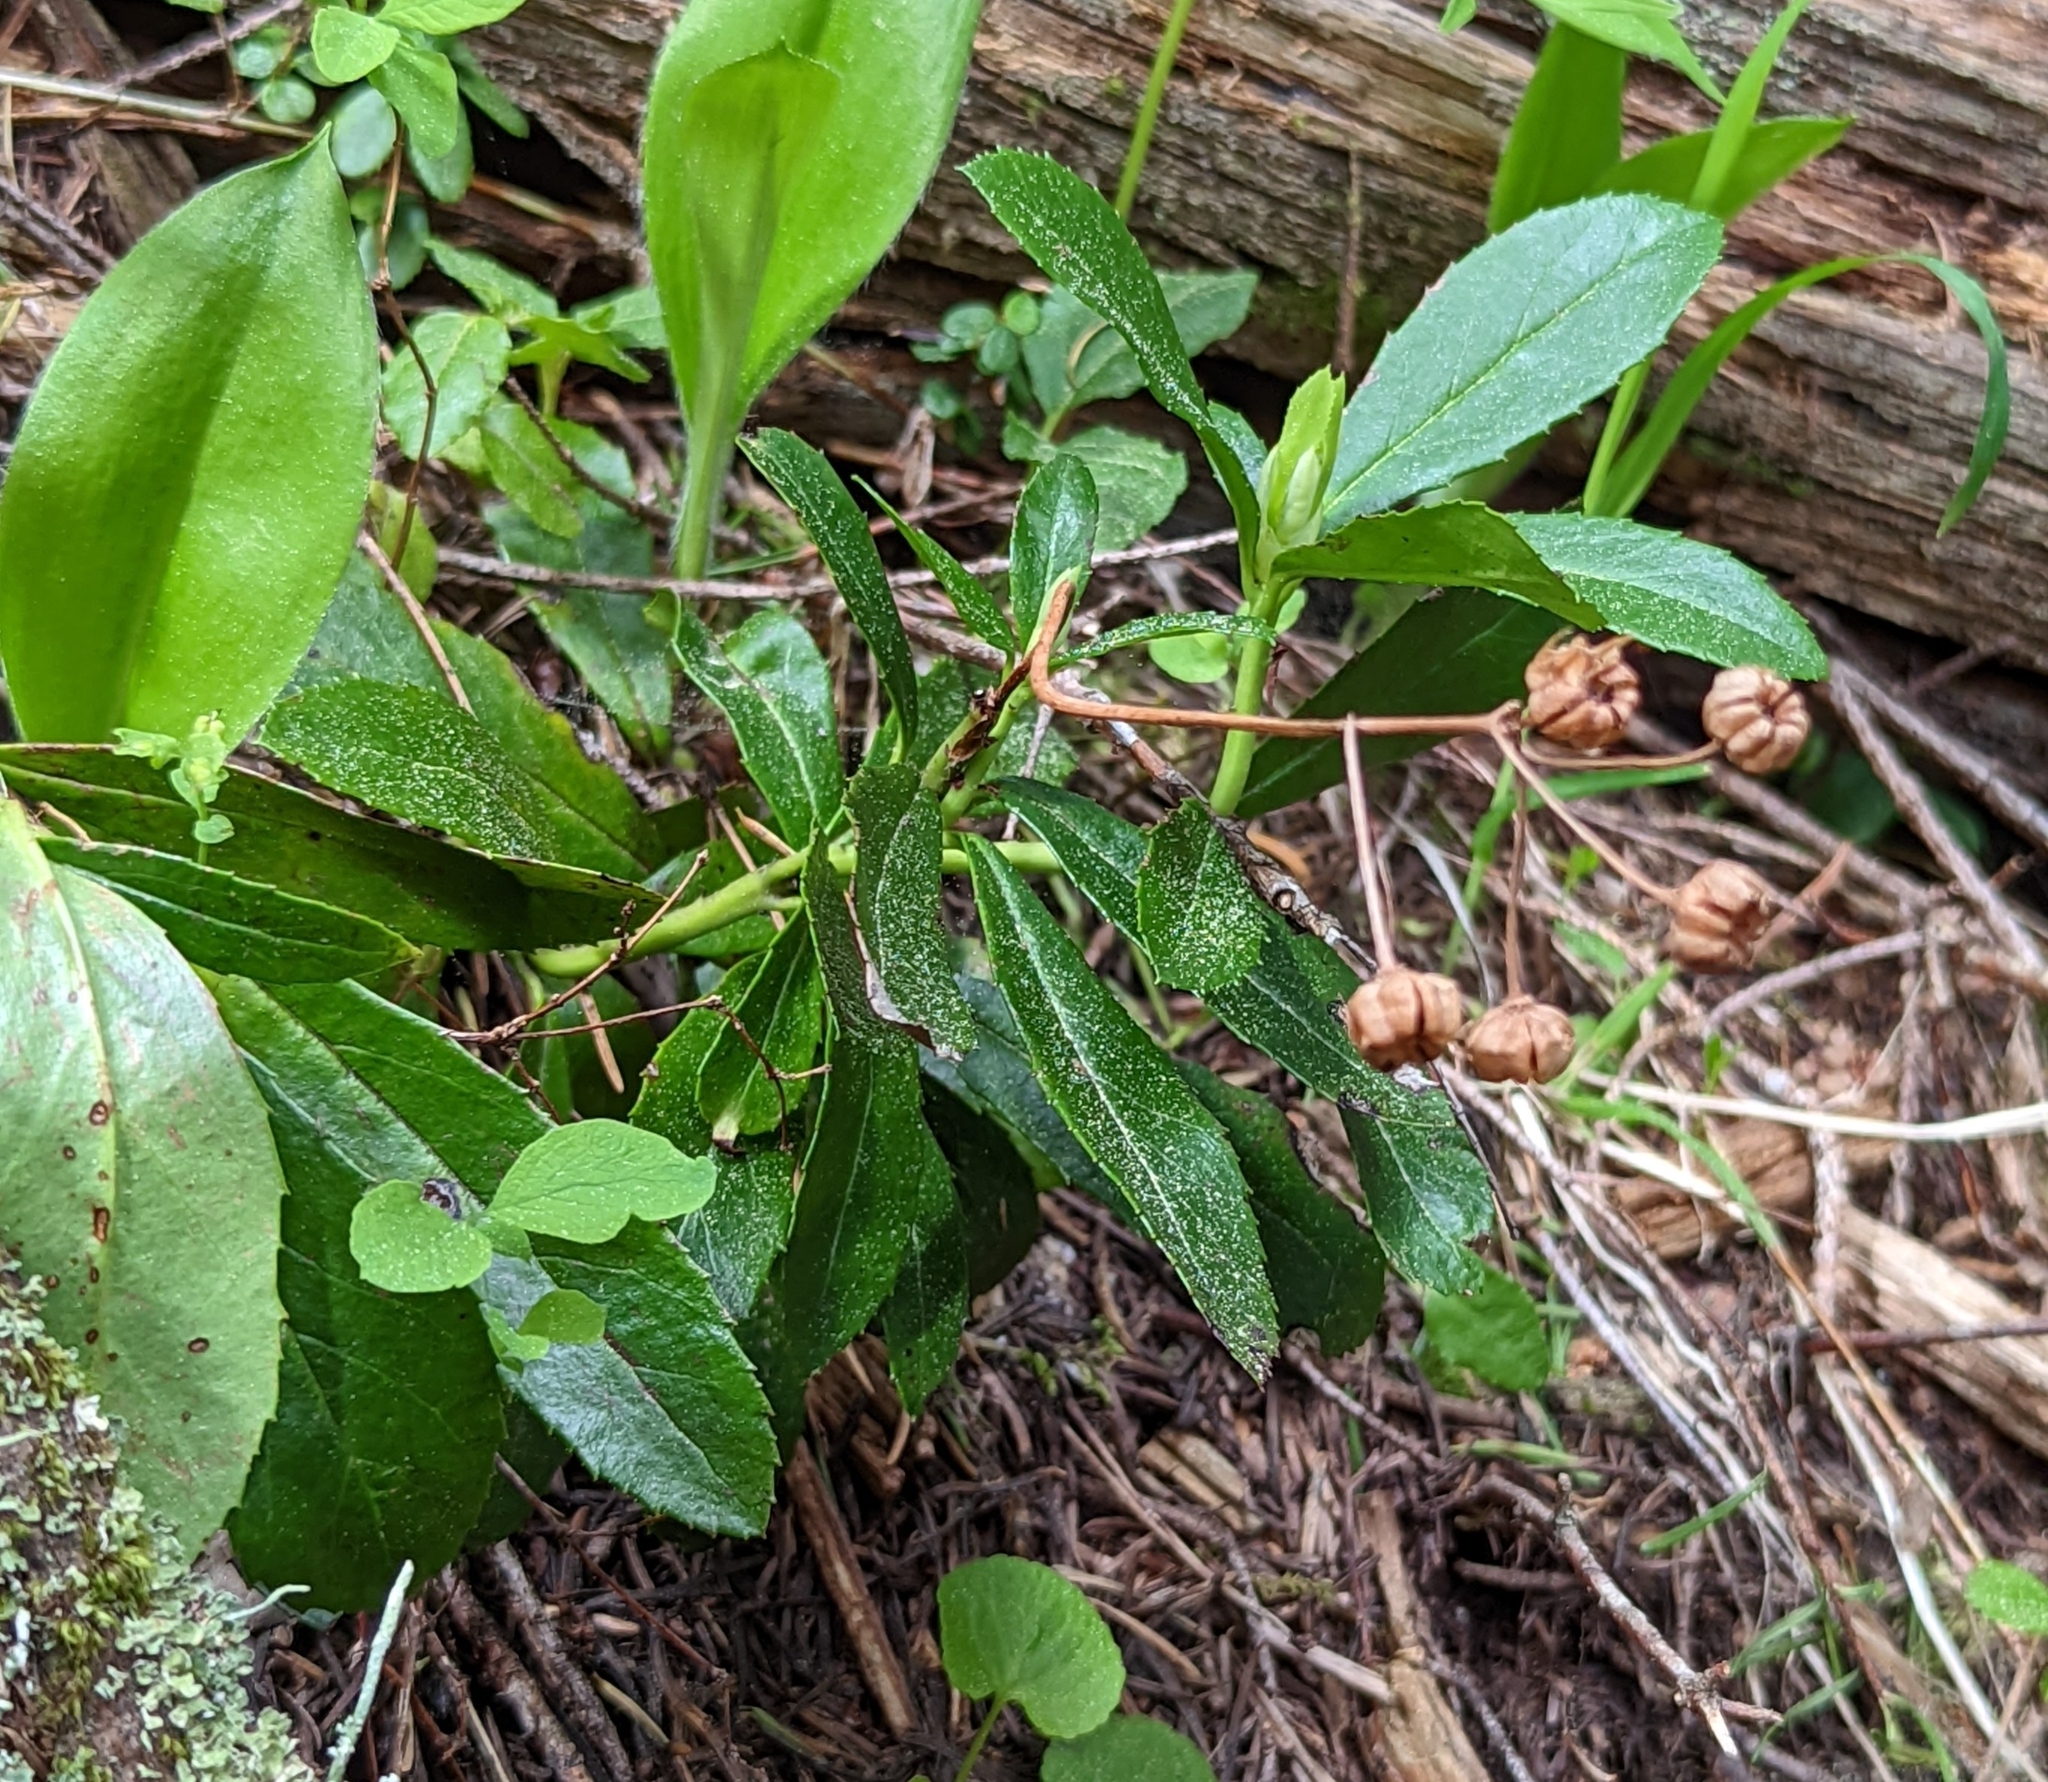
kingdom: Plantae
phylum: Tracheophyta
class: Magnoliopsida
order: Ericales
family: Ericaceae
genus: Chimaphila
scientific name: Chimaphila umbellata
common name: Pipsissewa
